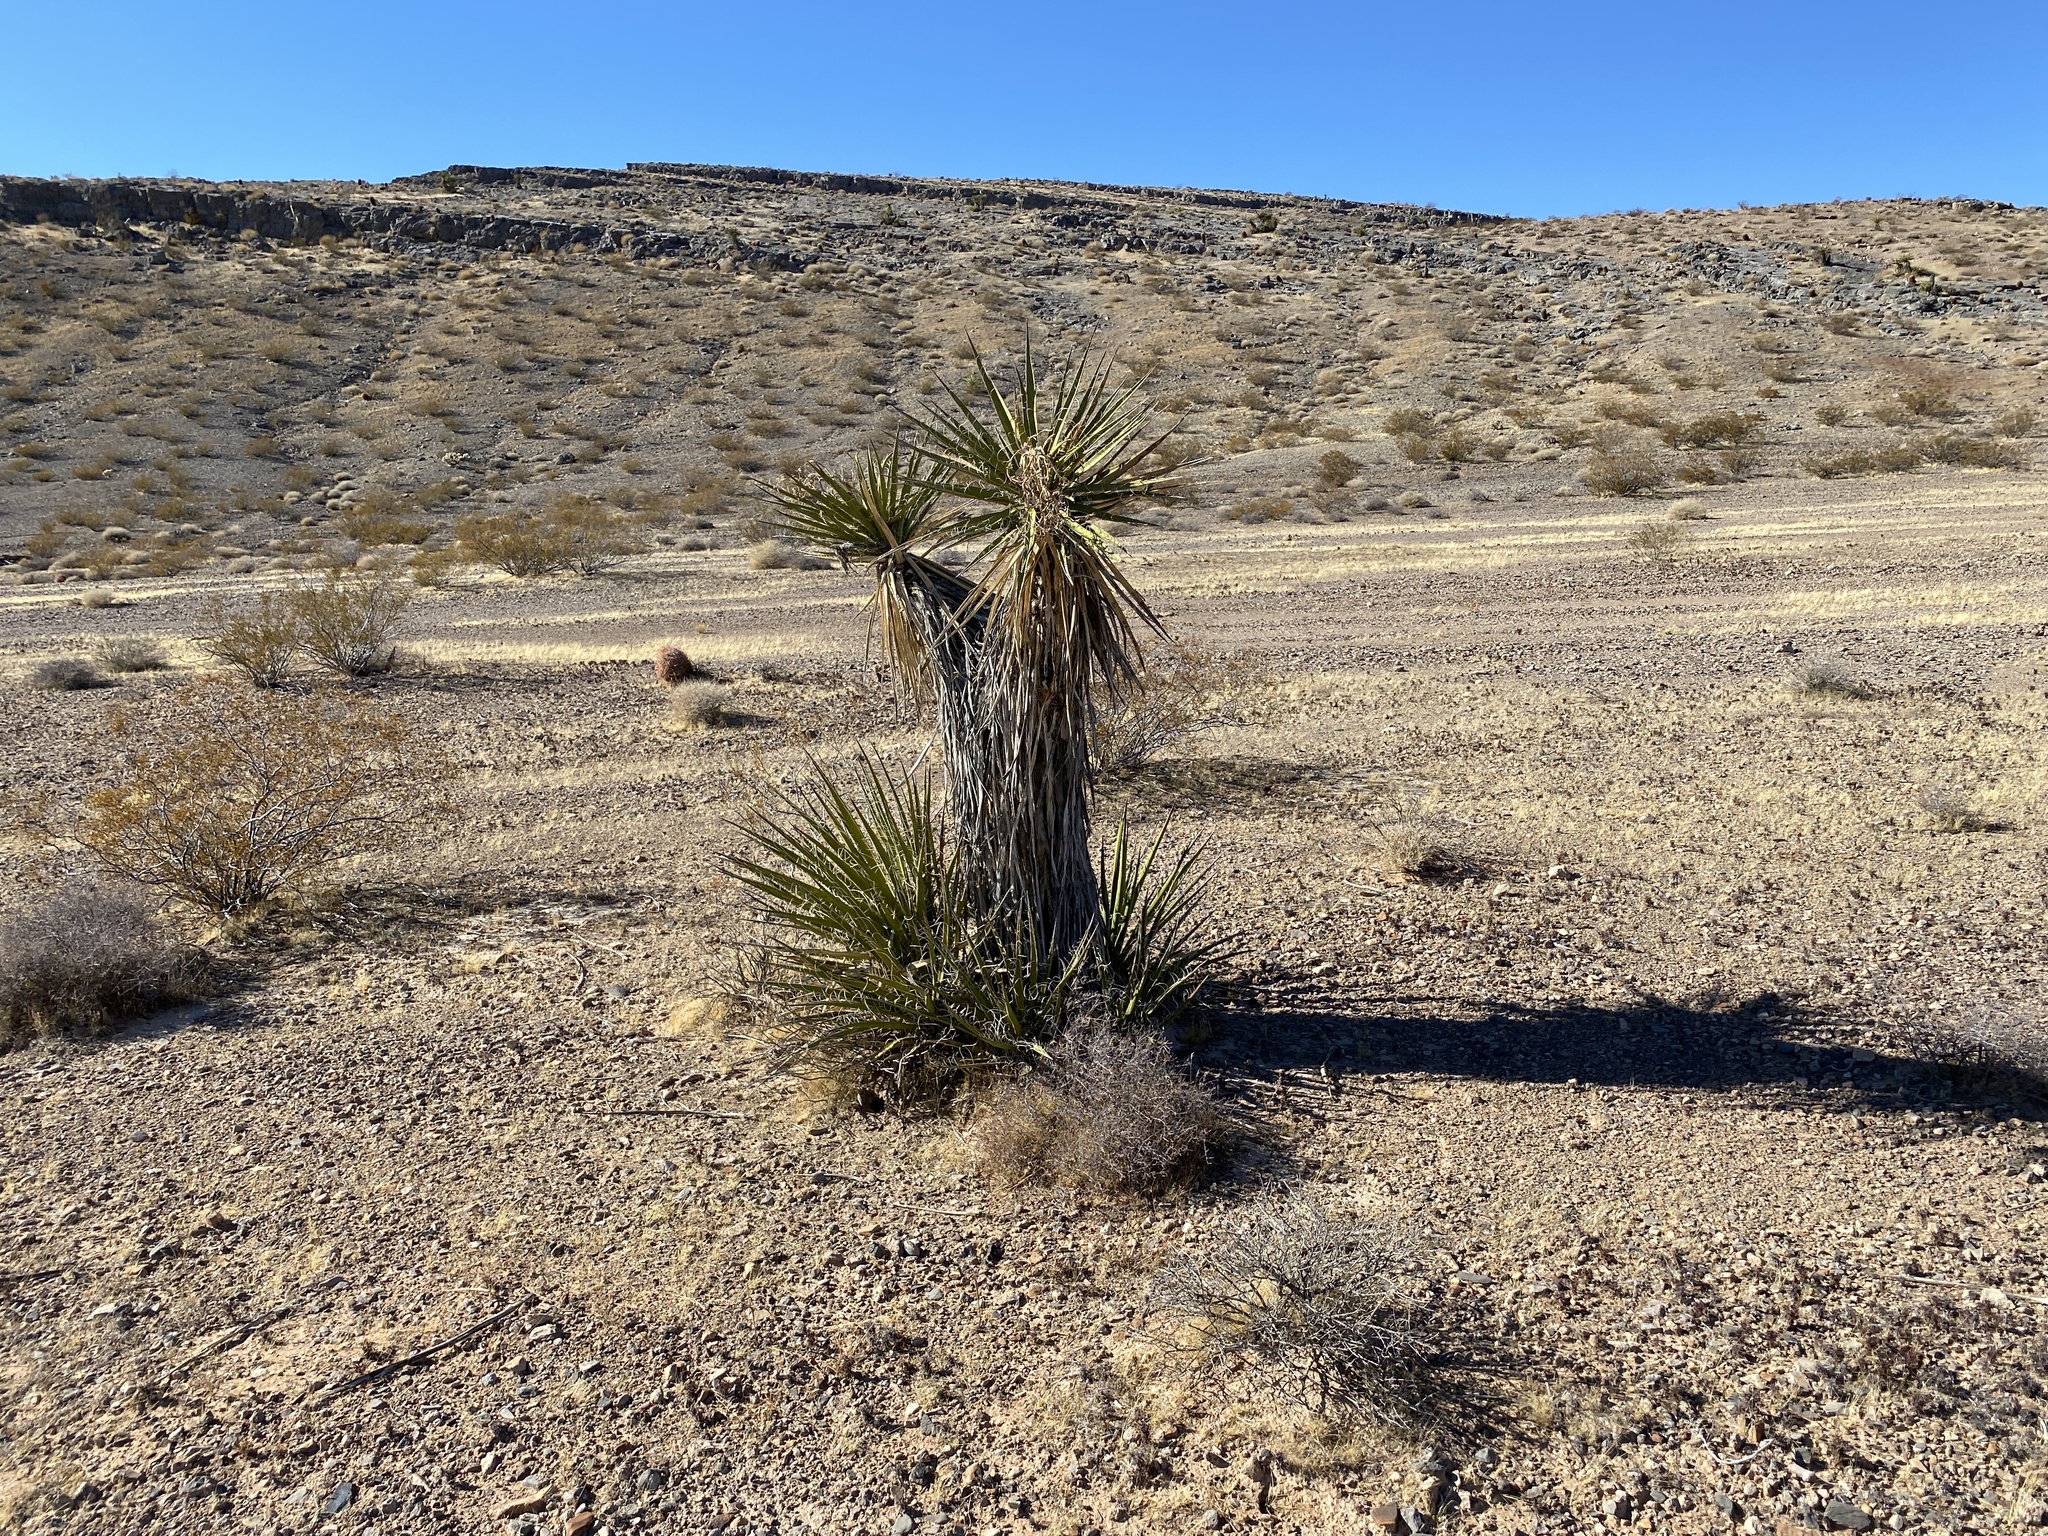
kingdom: Plantae
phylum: Tracheophyta
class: Liliopsida
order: Asparagales
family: Asparagaceae
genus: Yucca
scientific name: Yucca schidigera
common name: Mojave yucca
